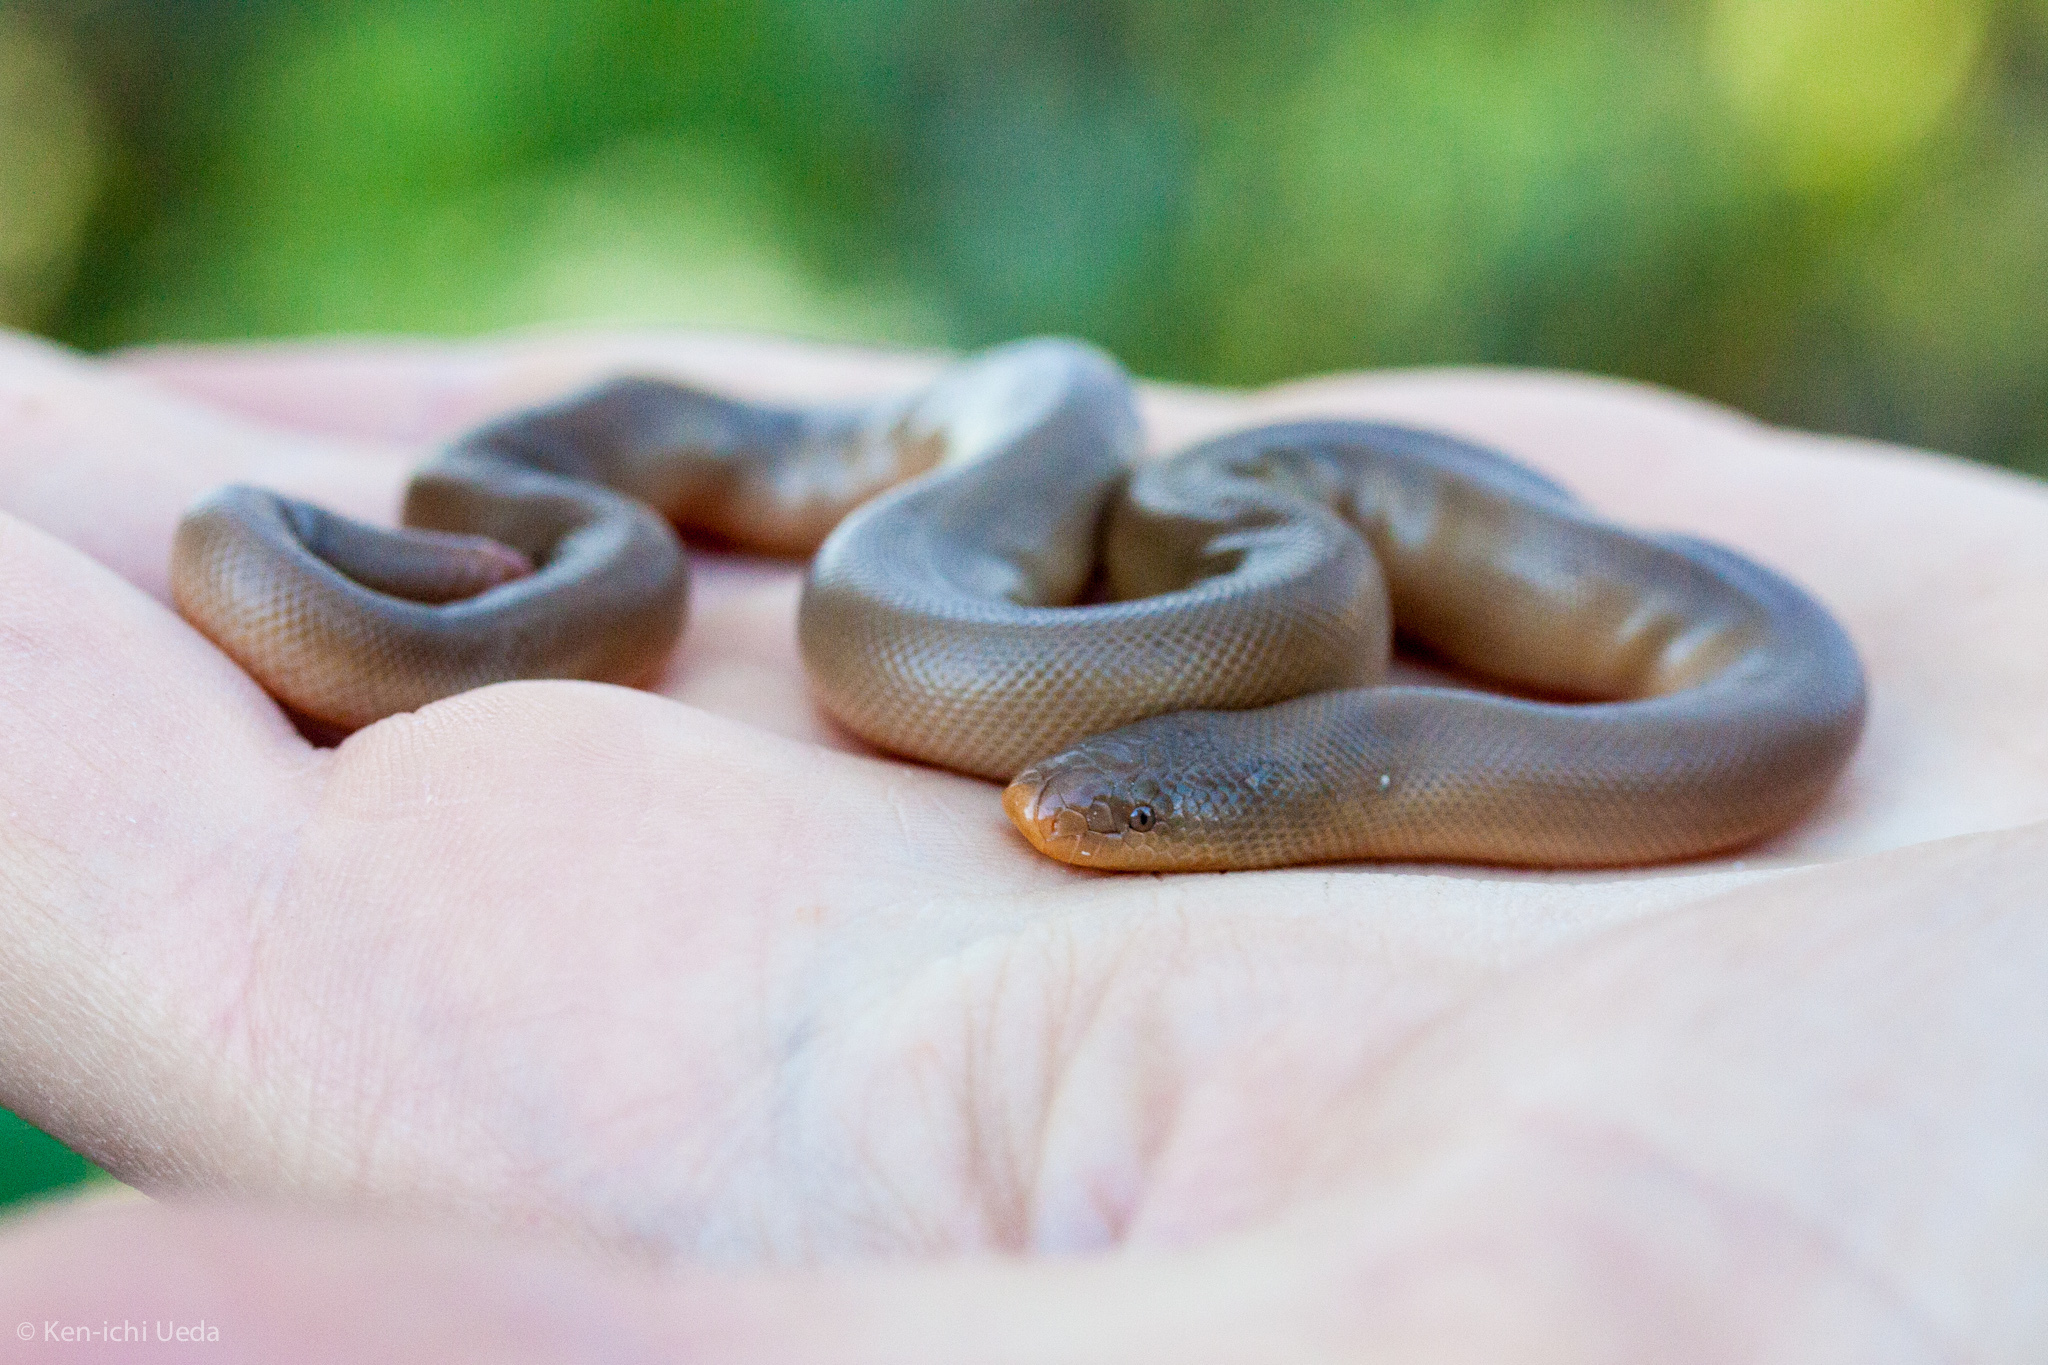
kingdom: Animalia
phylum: Chordata
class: Squamata
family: Boidae
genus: Charina
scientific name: Charina bottae
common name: Northern rubber boa
